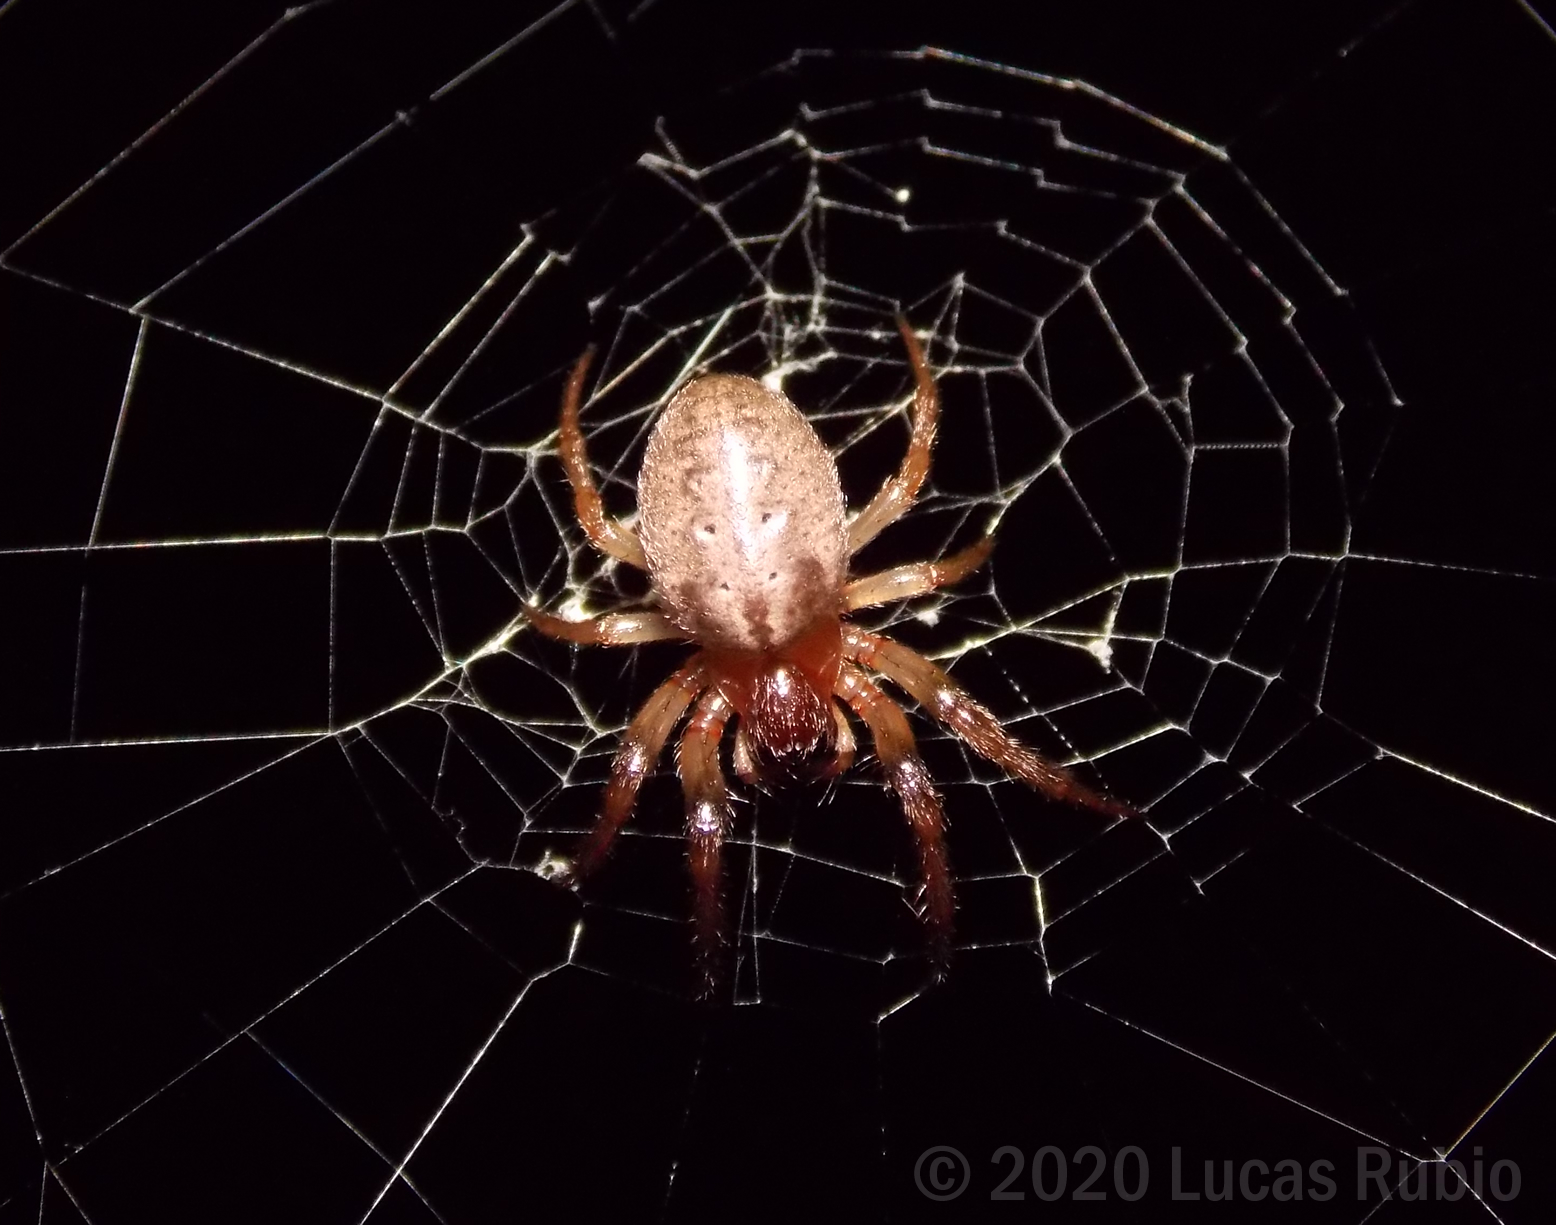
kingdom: Animalia
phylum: Arthropoda
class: Arachnida
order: Araneae
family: Araneidae
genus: Metazygia
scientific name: Metazygia
